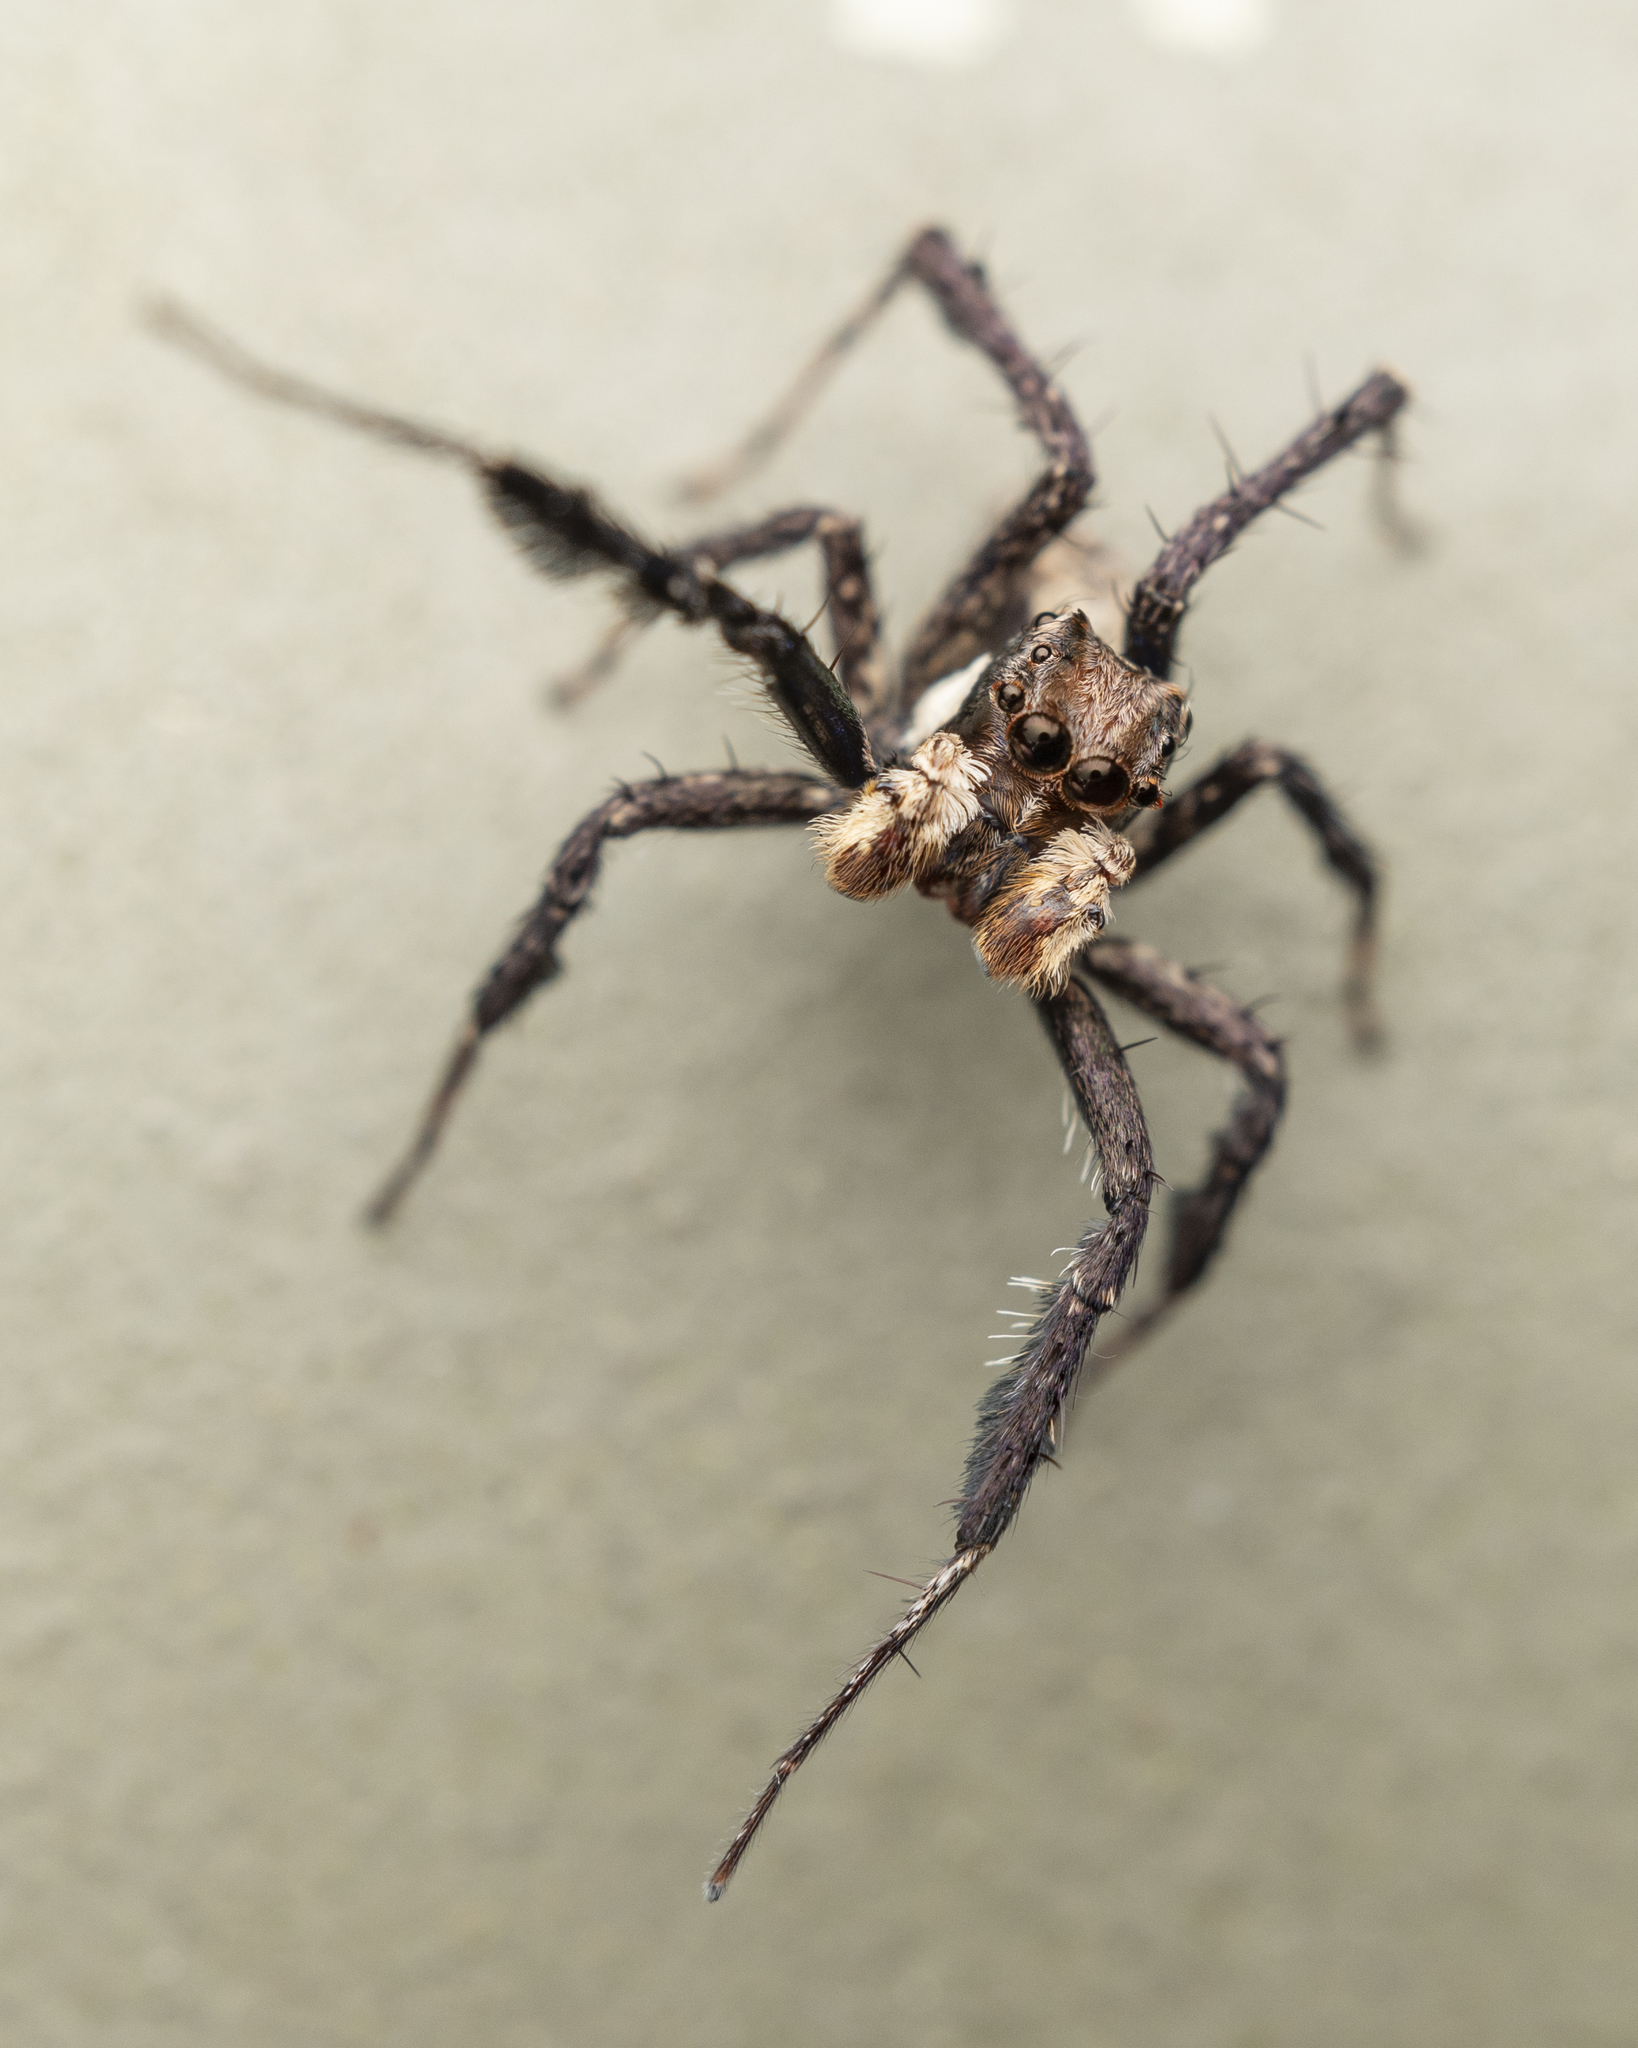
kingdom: Animalia
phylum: Arthropoda
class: Arachnida
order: Araneae
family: Salticidae
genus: Portia
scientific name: Portia orientalis
